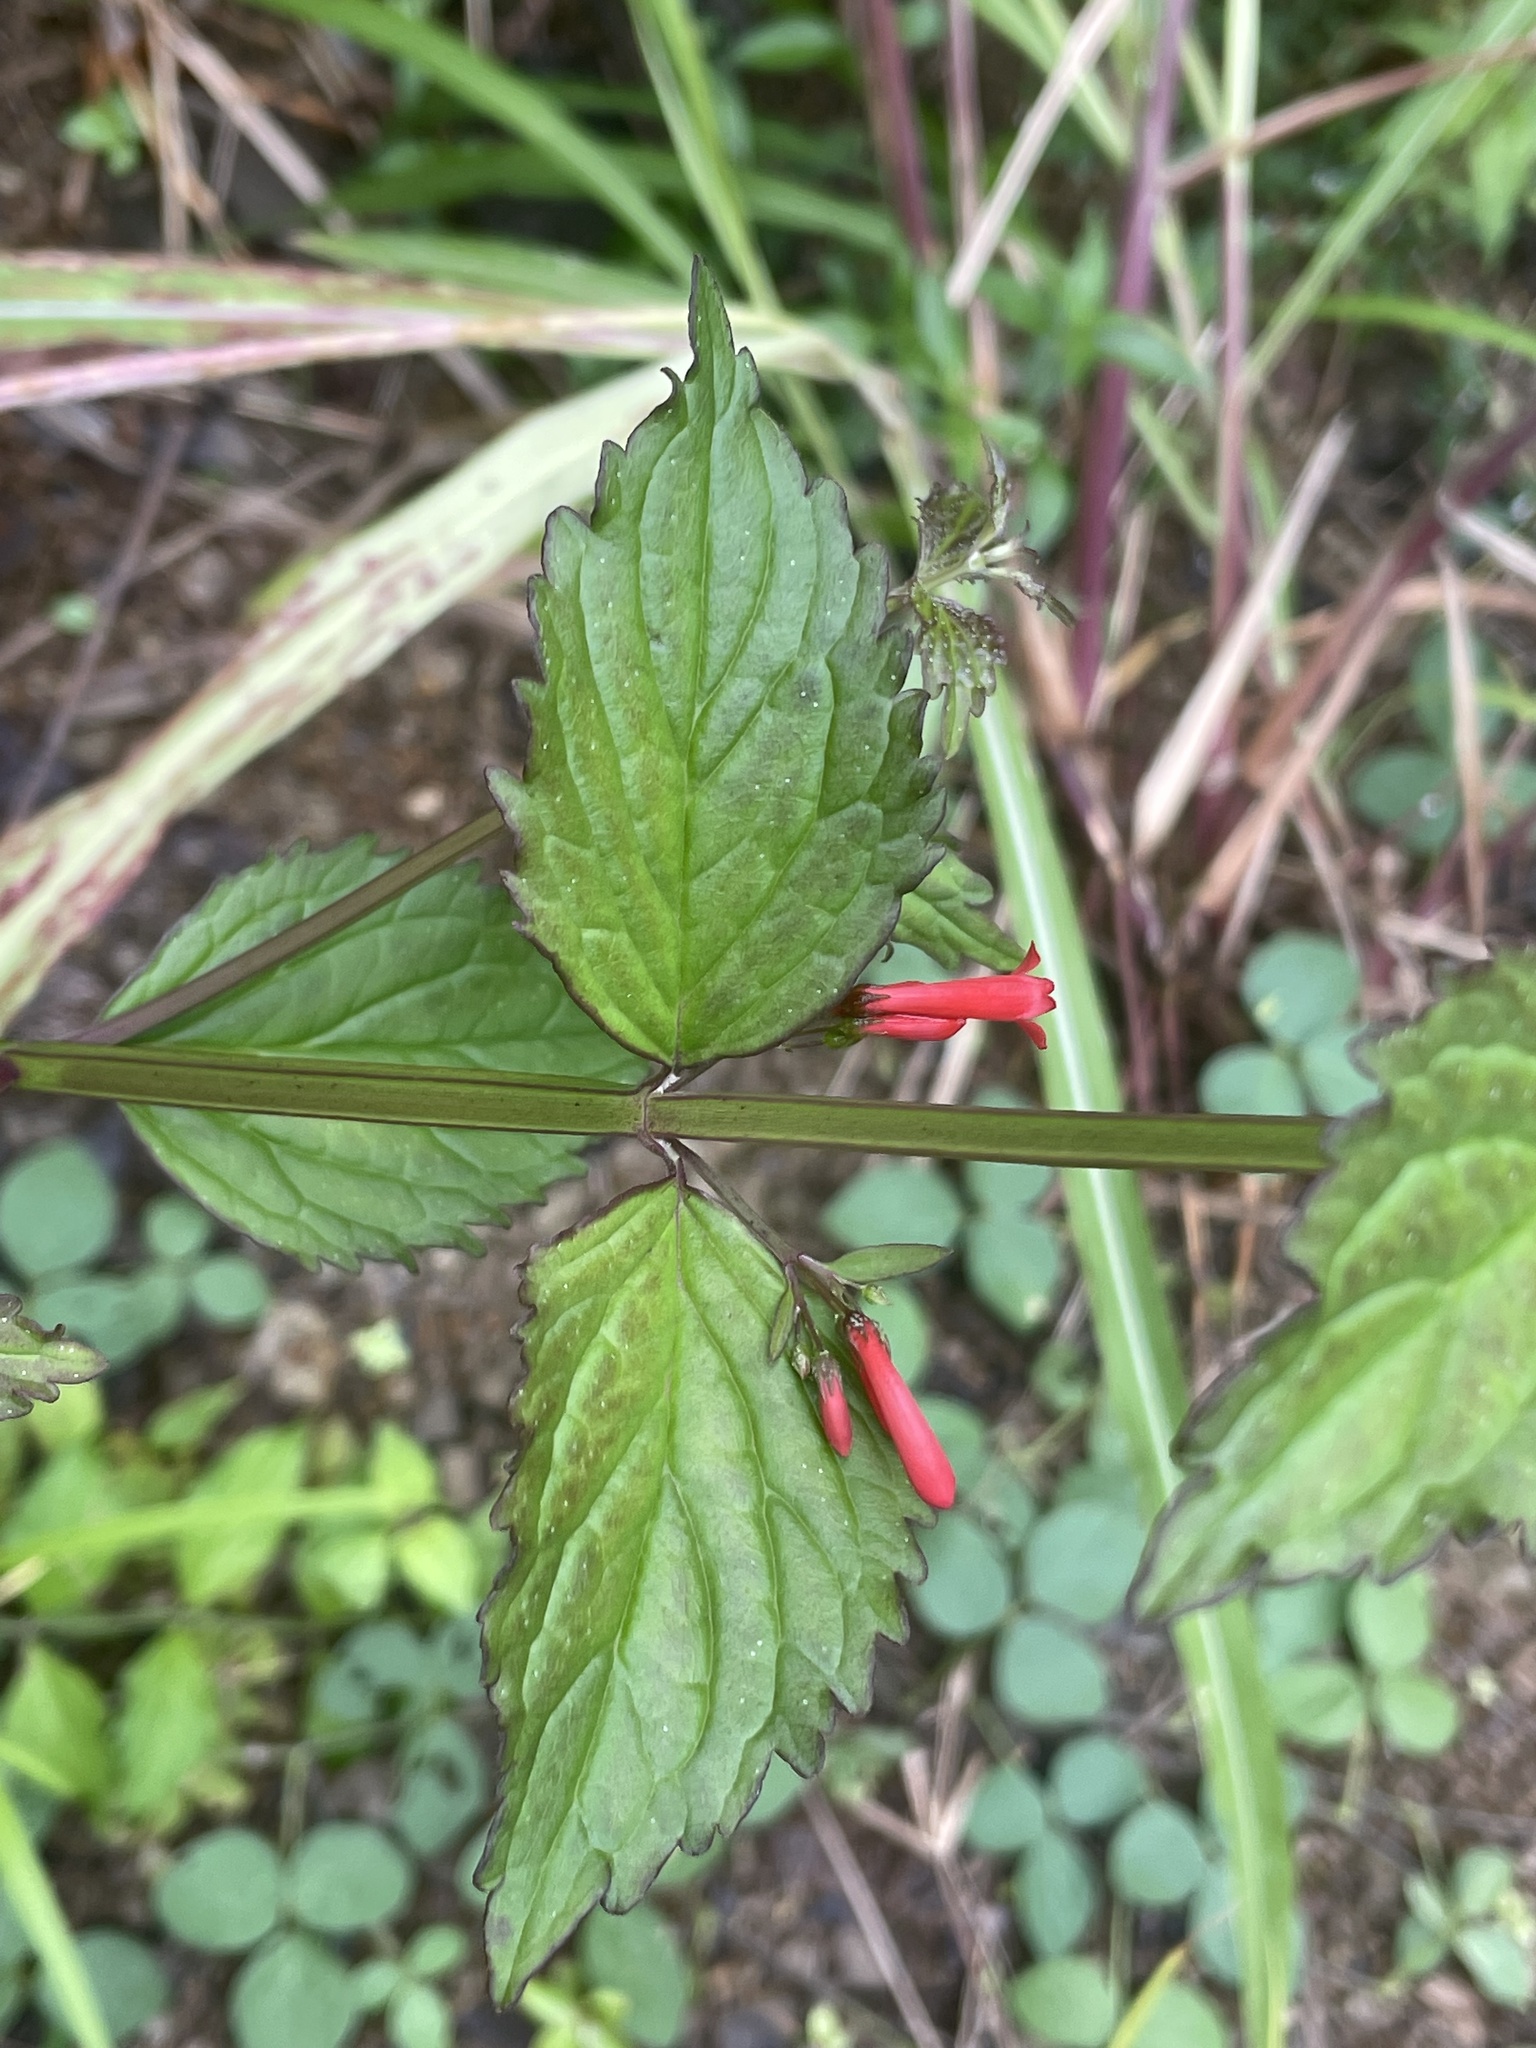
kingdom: Plantae
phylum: Tracheophyta
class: Magnoliopsida
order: Lamiales
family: Plantaginaceae
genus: Russelia
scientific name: Russelia sarmentosa
